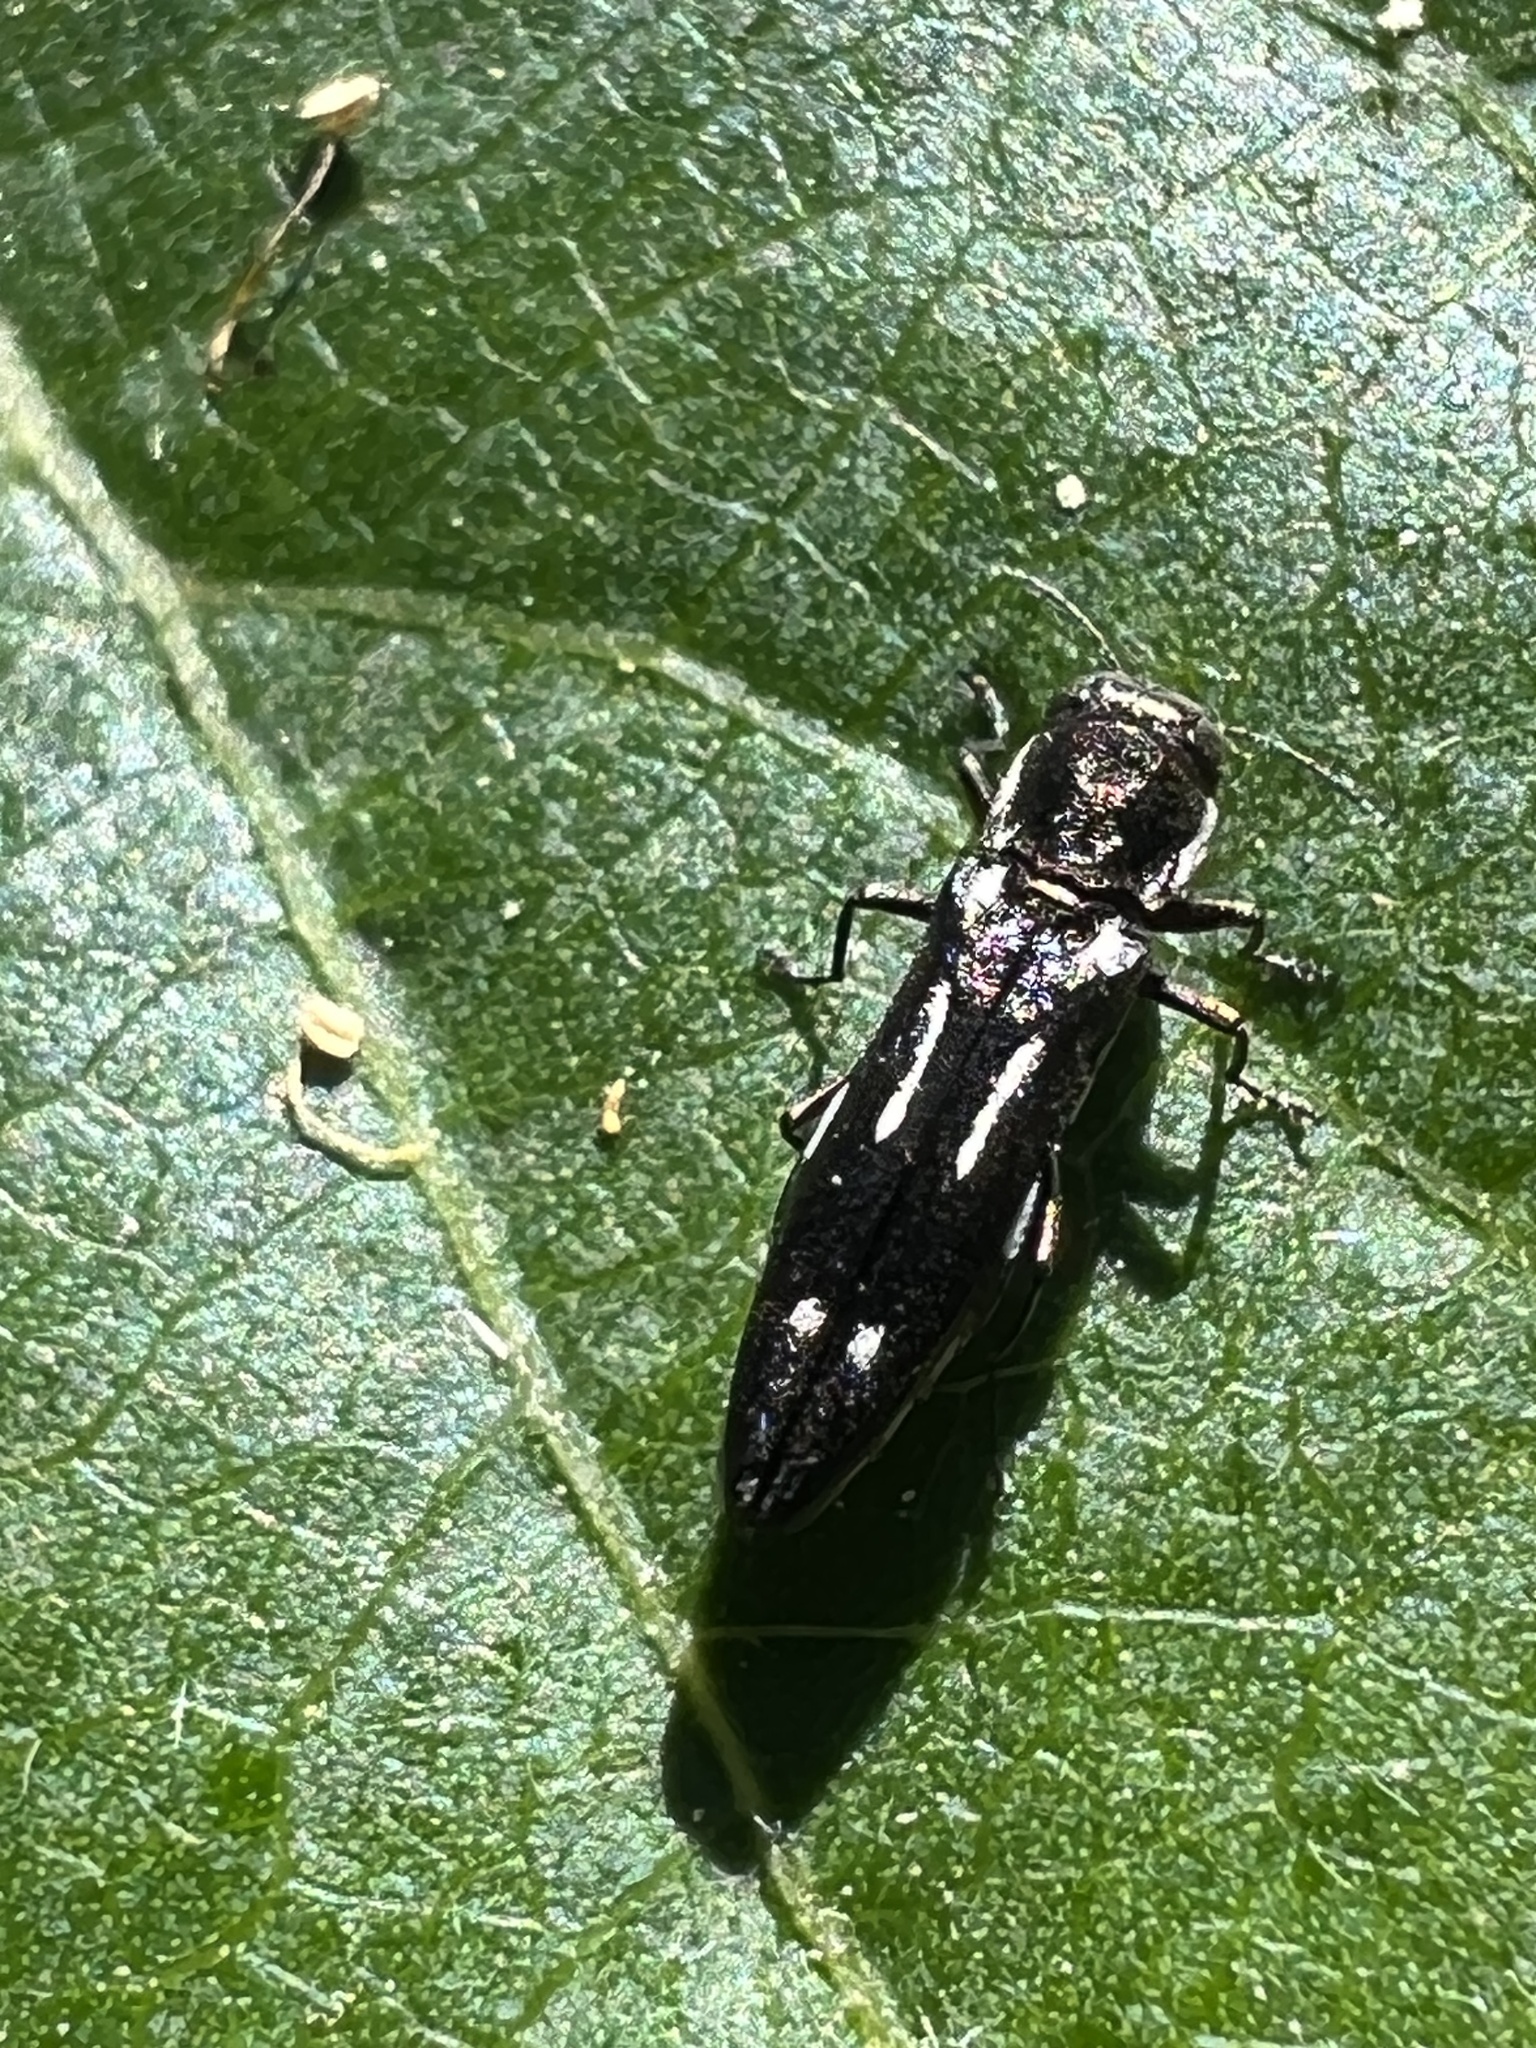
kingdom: Animalia
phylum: Arthropoda
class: Insecta
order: Coleoptera
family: Buprestidae
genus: Agrilus
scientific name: Agrilus obsoletoguttatus
